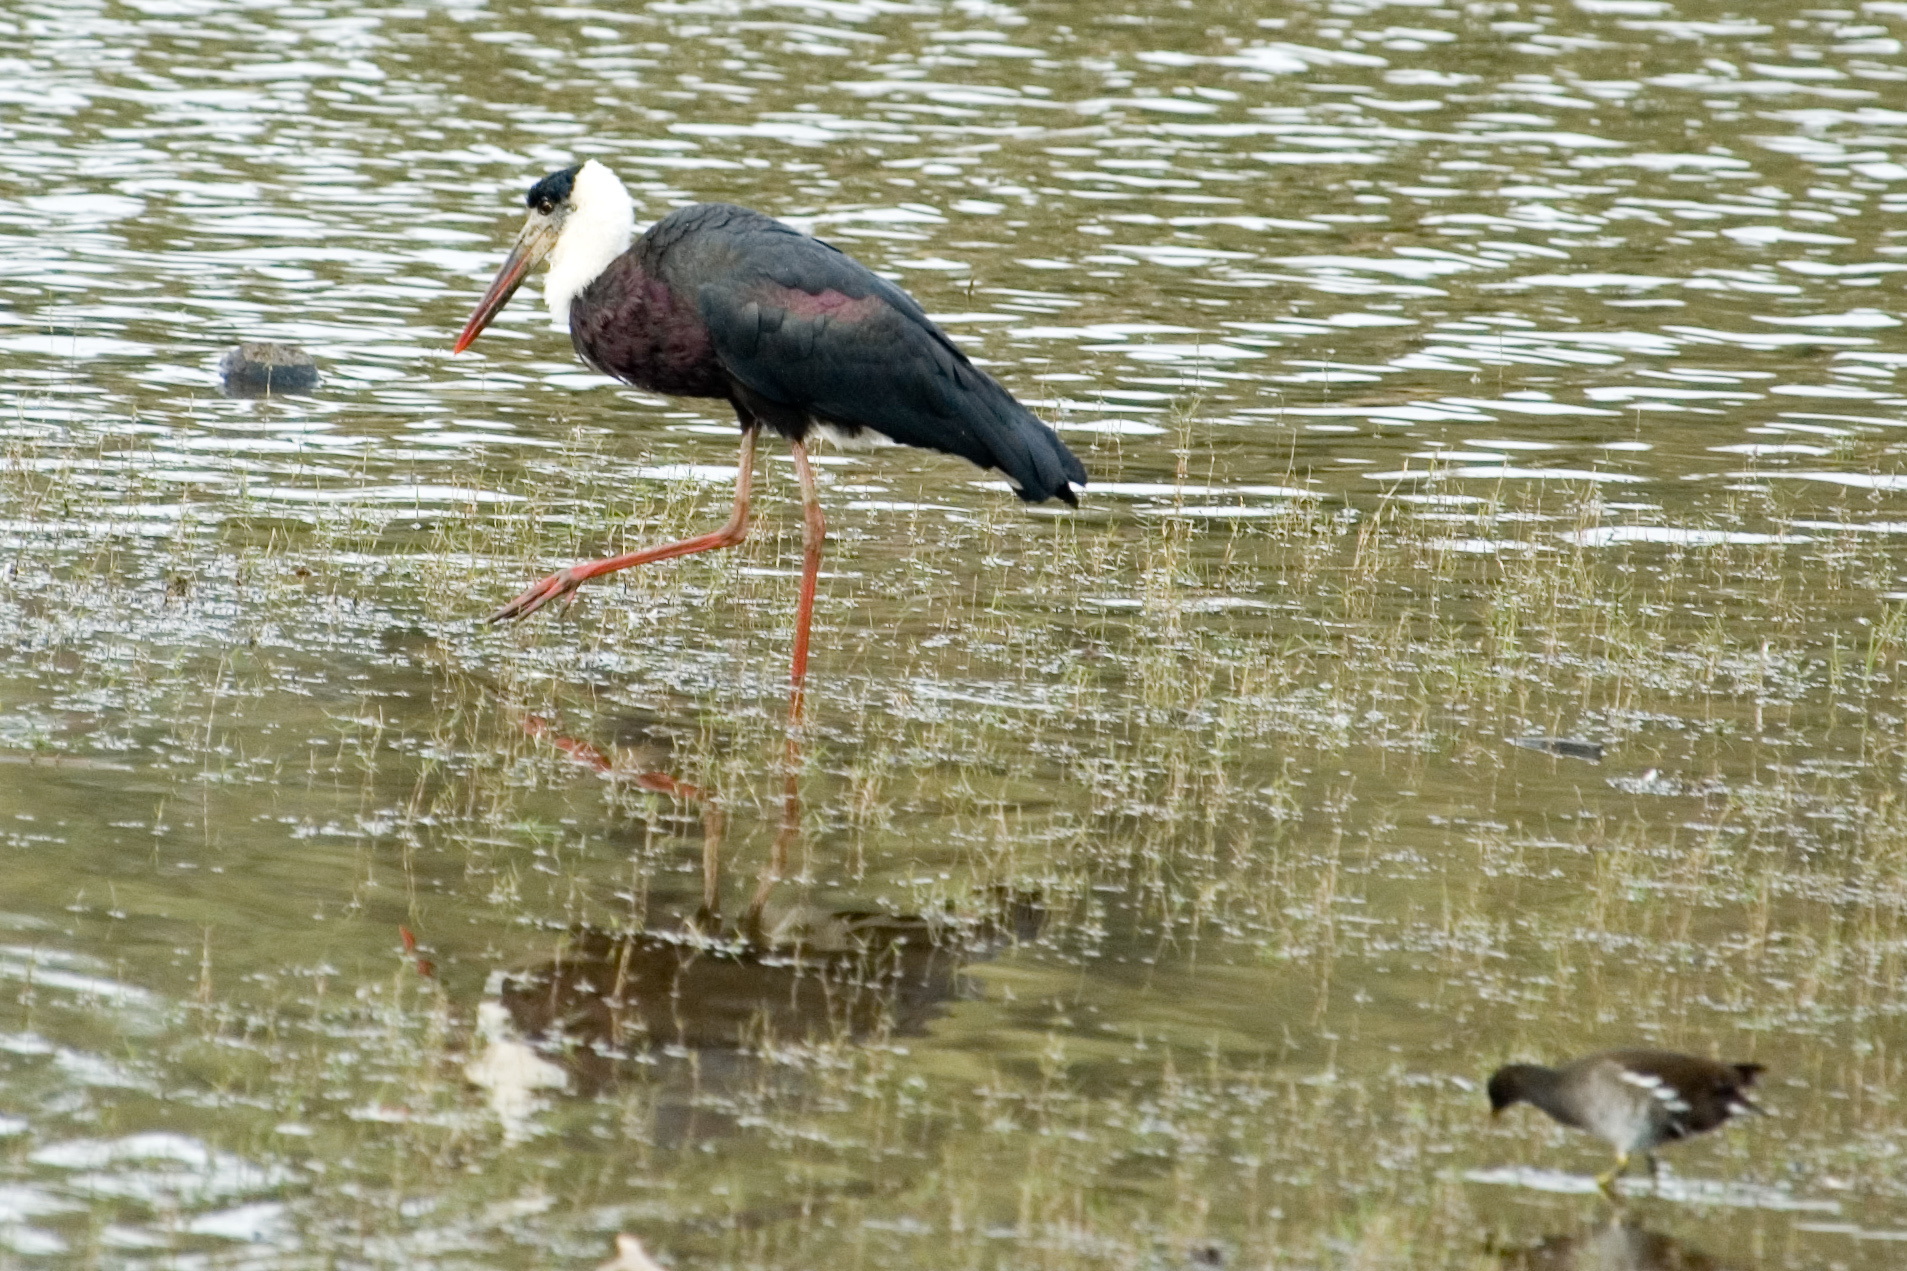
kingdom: Animalia
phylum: Chordata
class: Aves
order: Ciconiiformes
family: Ciconiidae
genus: Ciconia
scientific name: Ciconia episcopus
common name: Woolly-necked stork
